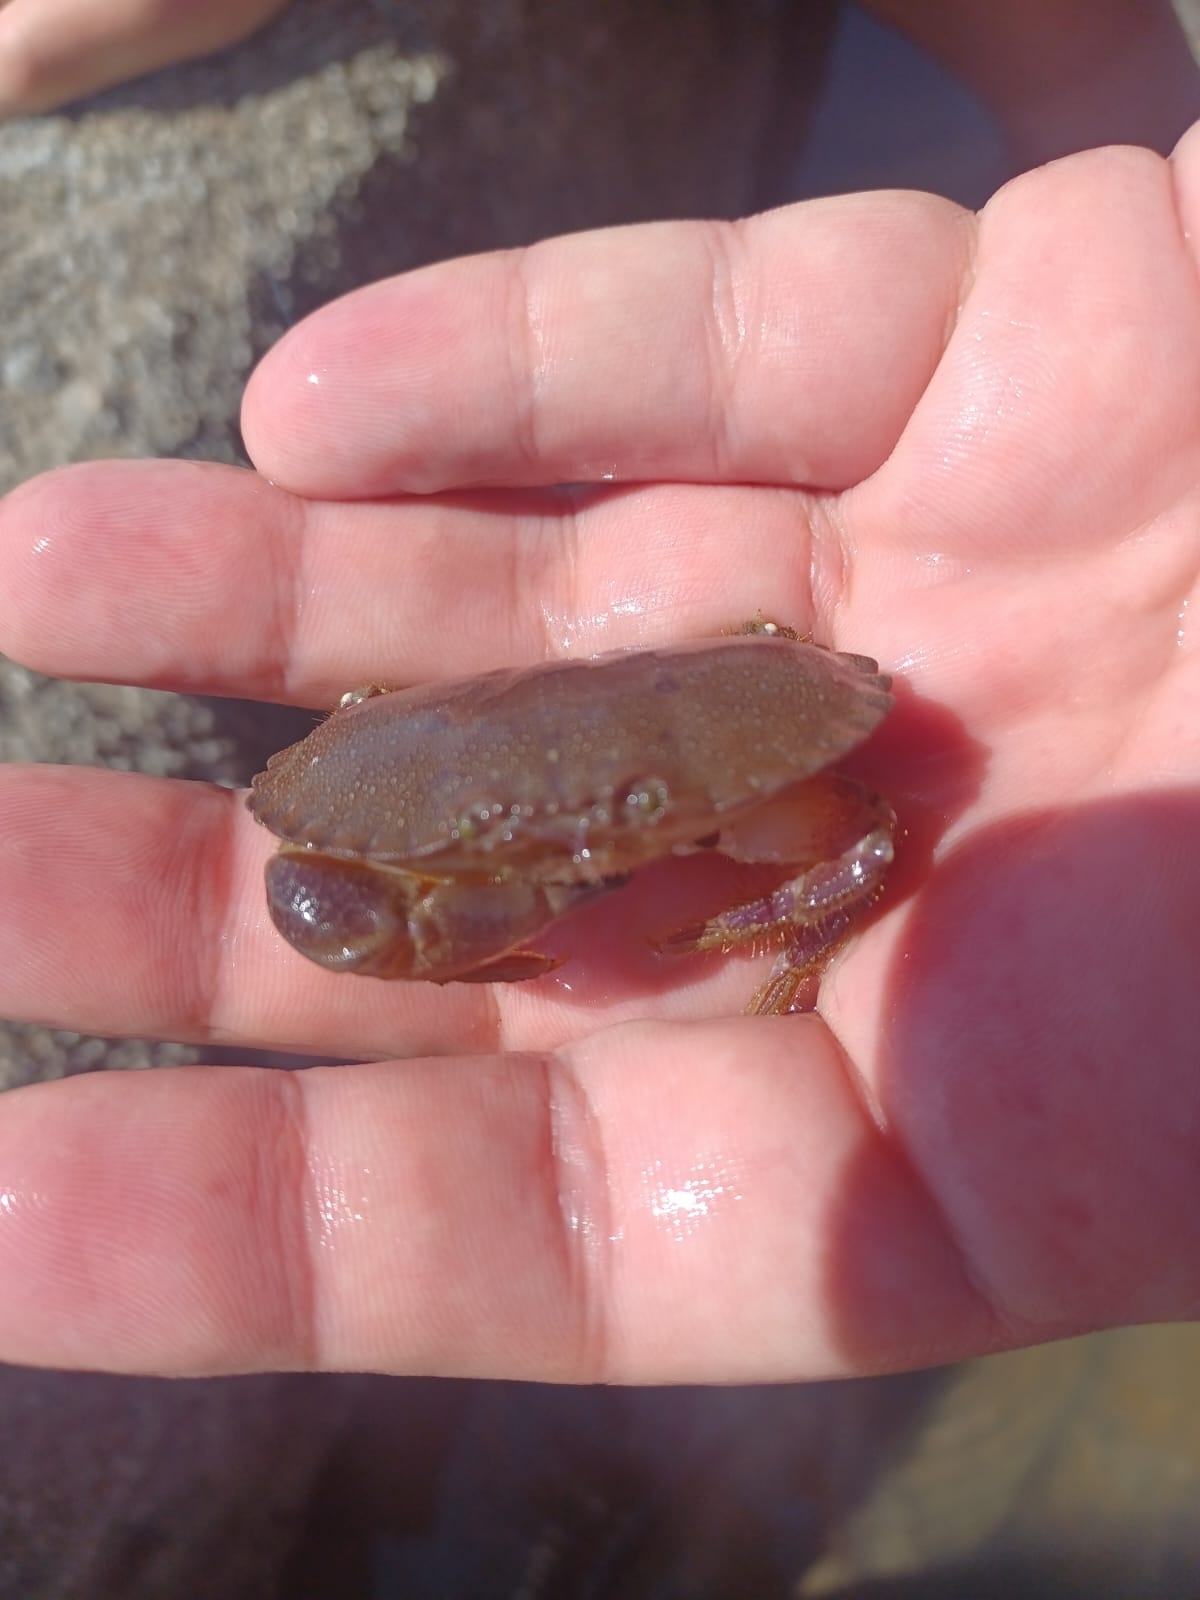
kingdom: Animalia
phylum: Arthropoda
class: Malacostraca
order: Decapoda
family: Cancridae
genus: Cancer
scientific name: Cancer pagurus
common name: Edible crab
